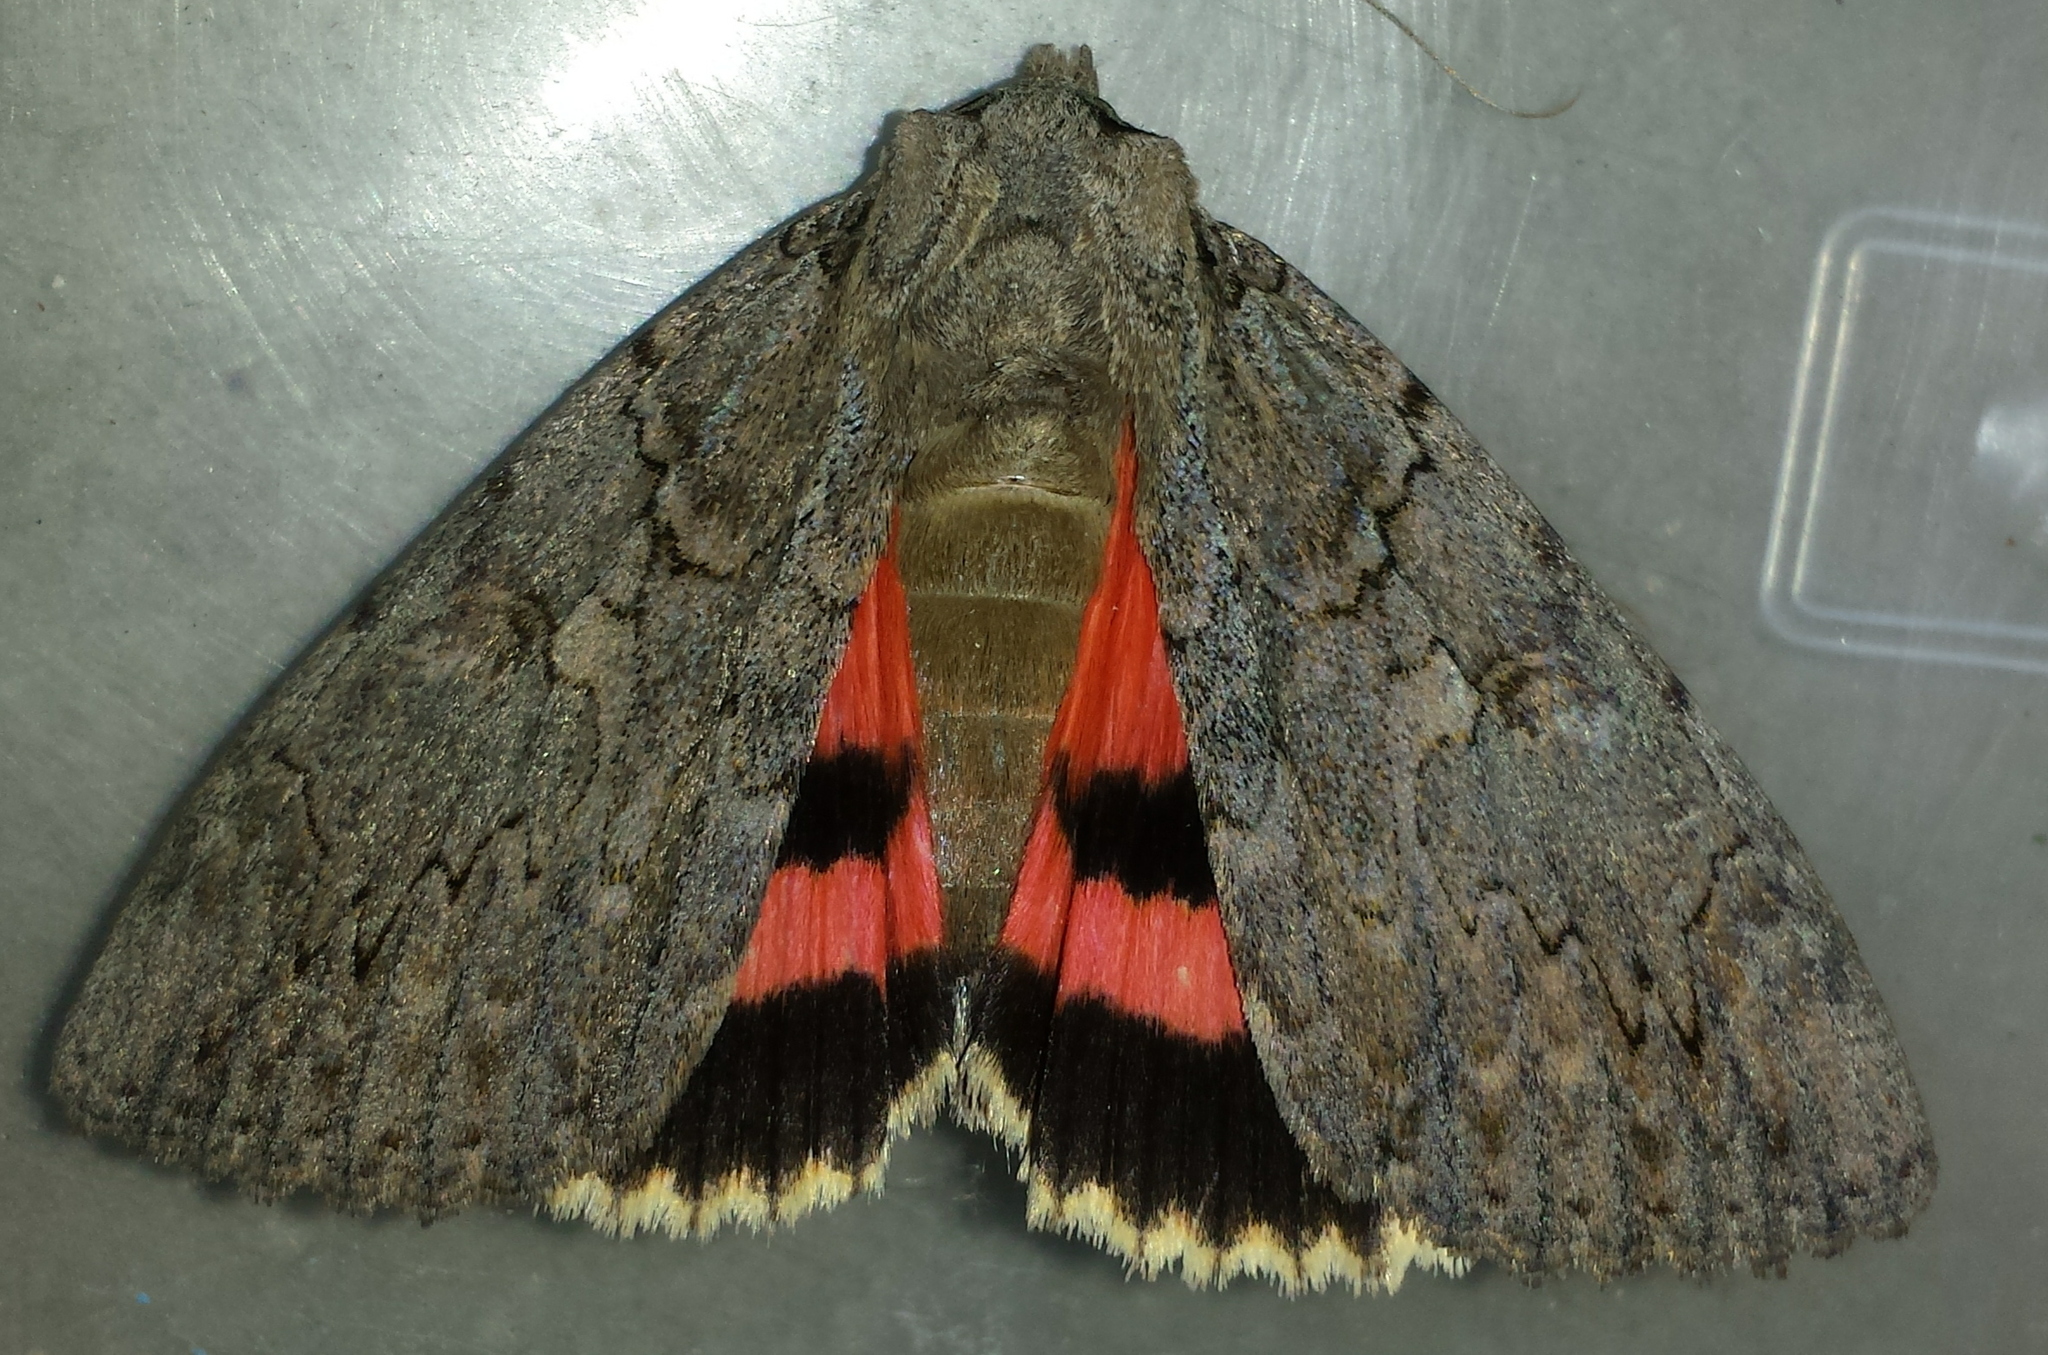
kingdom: Animalia
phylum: Arthropoda
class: Insecta
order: Lepidoptera
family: Erebidae
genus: Catocala
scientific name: Catocala amatrix
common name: Sweetheart underwing
